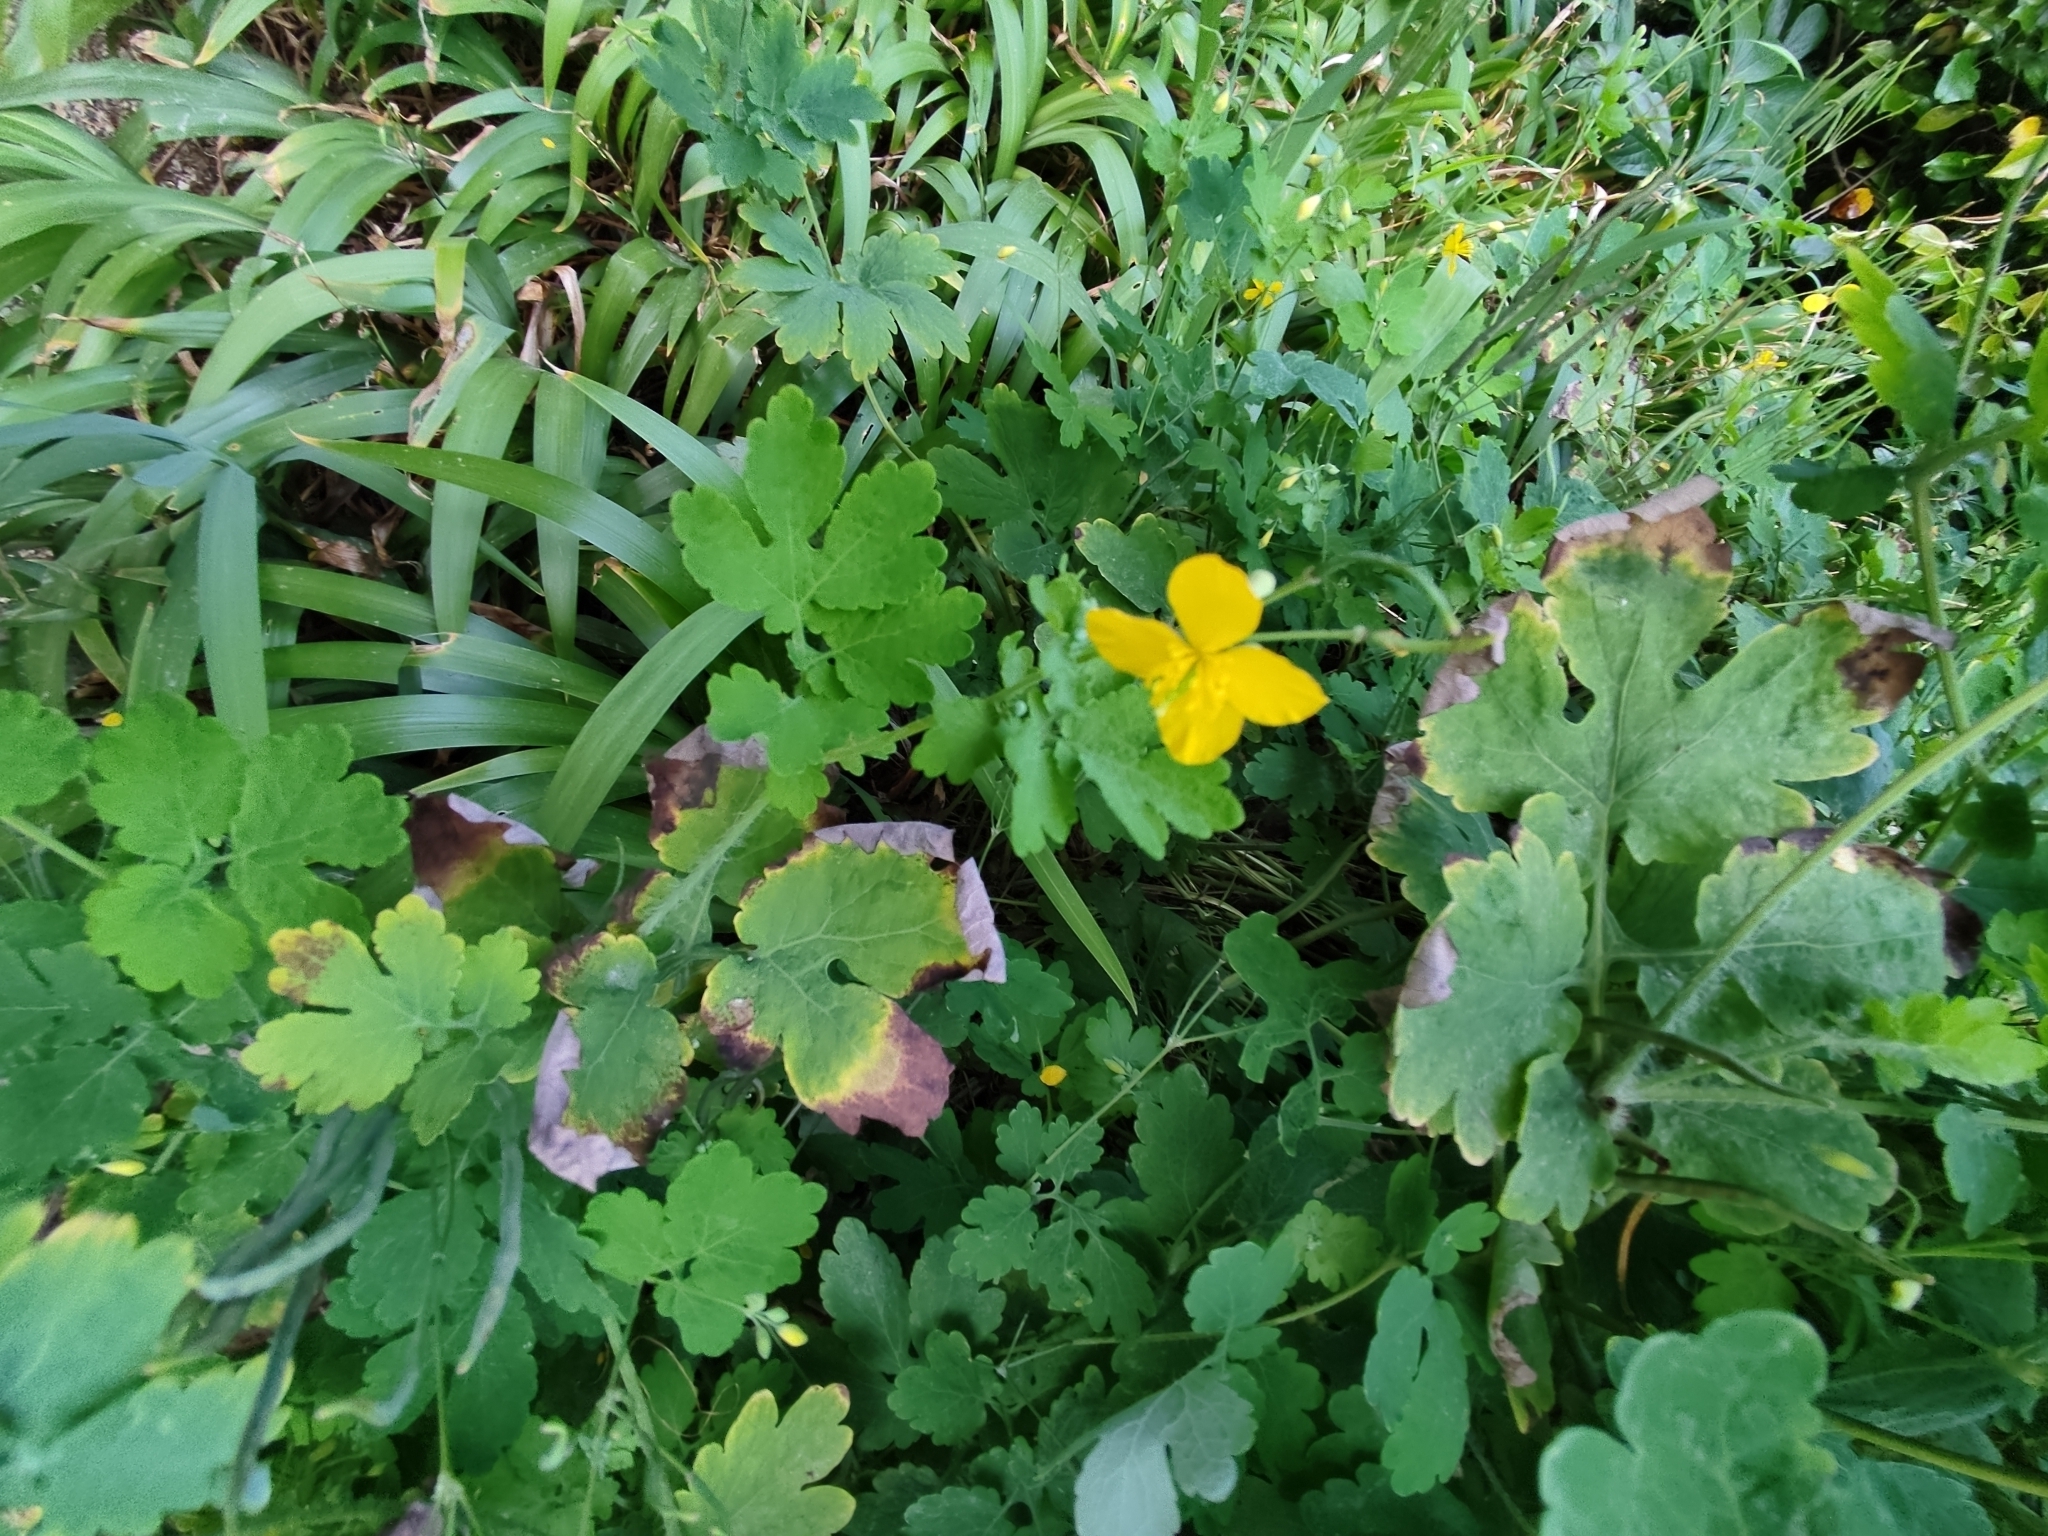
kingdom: Plantae
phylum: Tracheophyta
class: Magnoliopsida
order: Ranunculales
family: Papaveraceae
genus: Chelidonium
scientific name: Chelidonium majus
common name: Greater celandine
